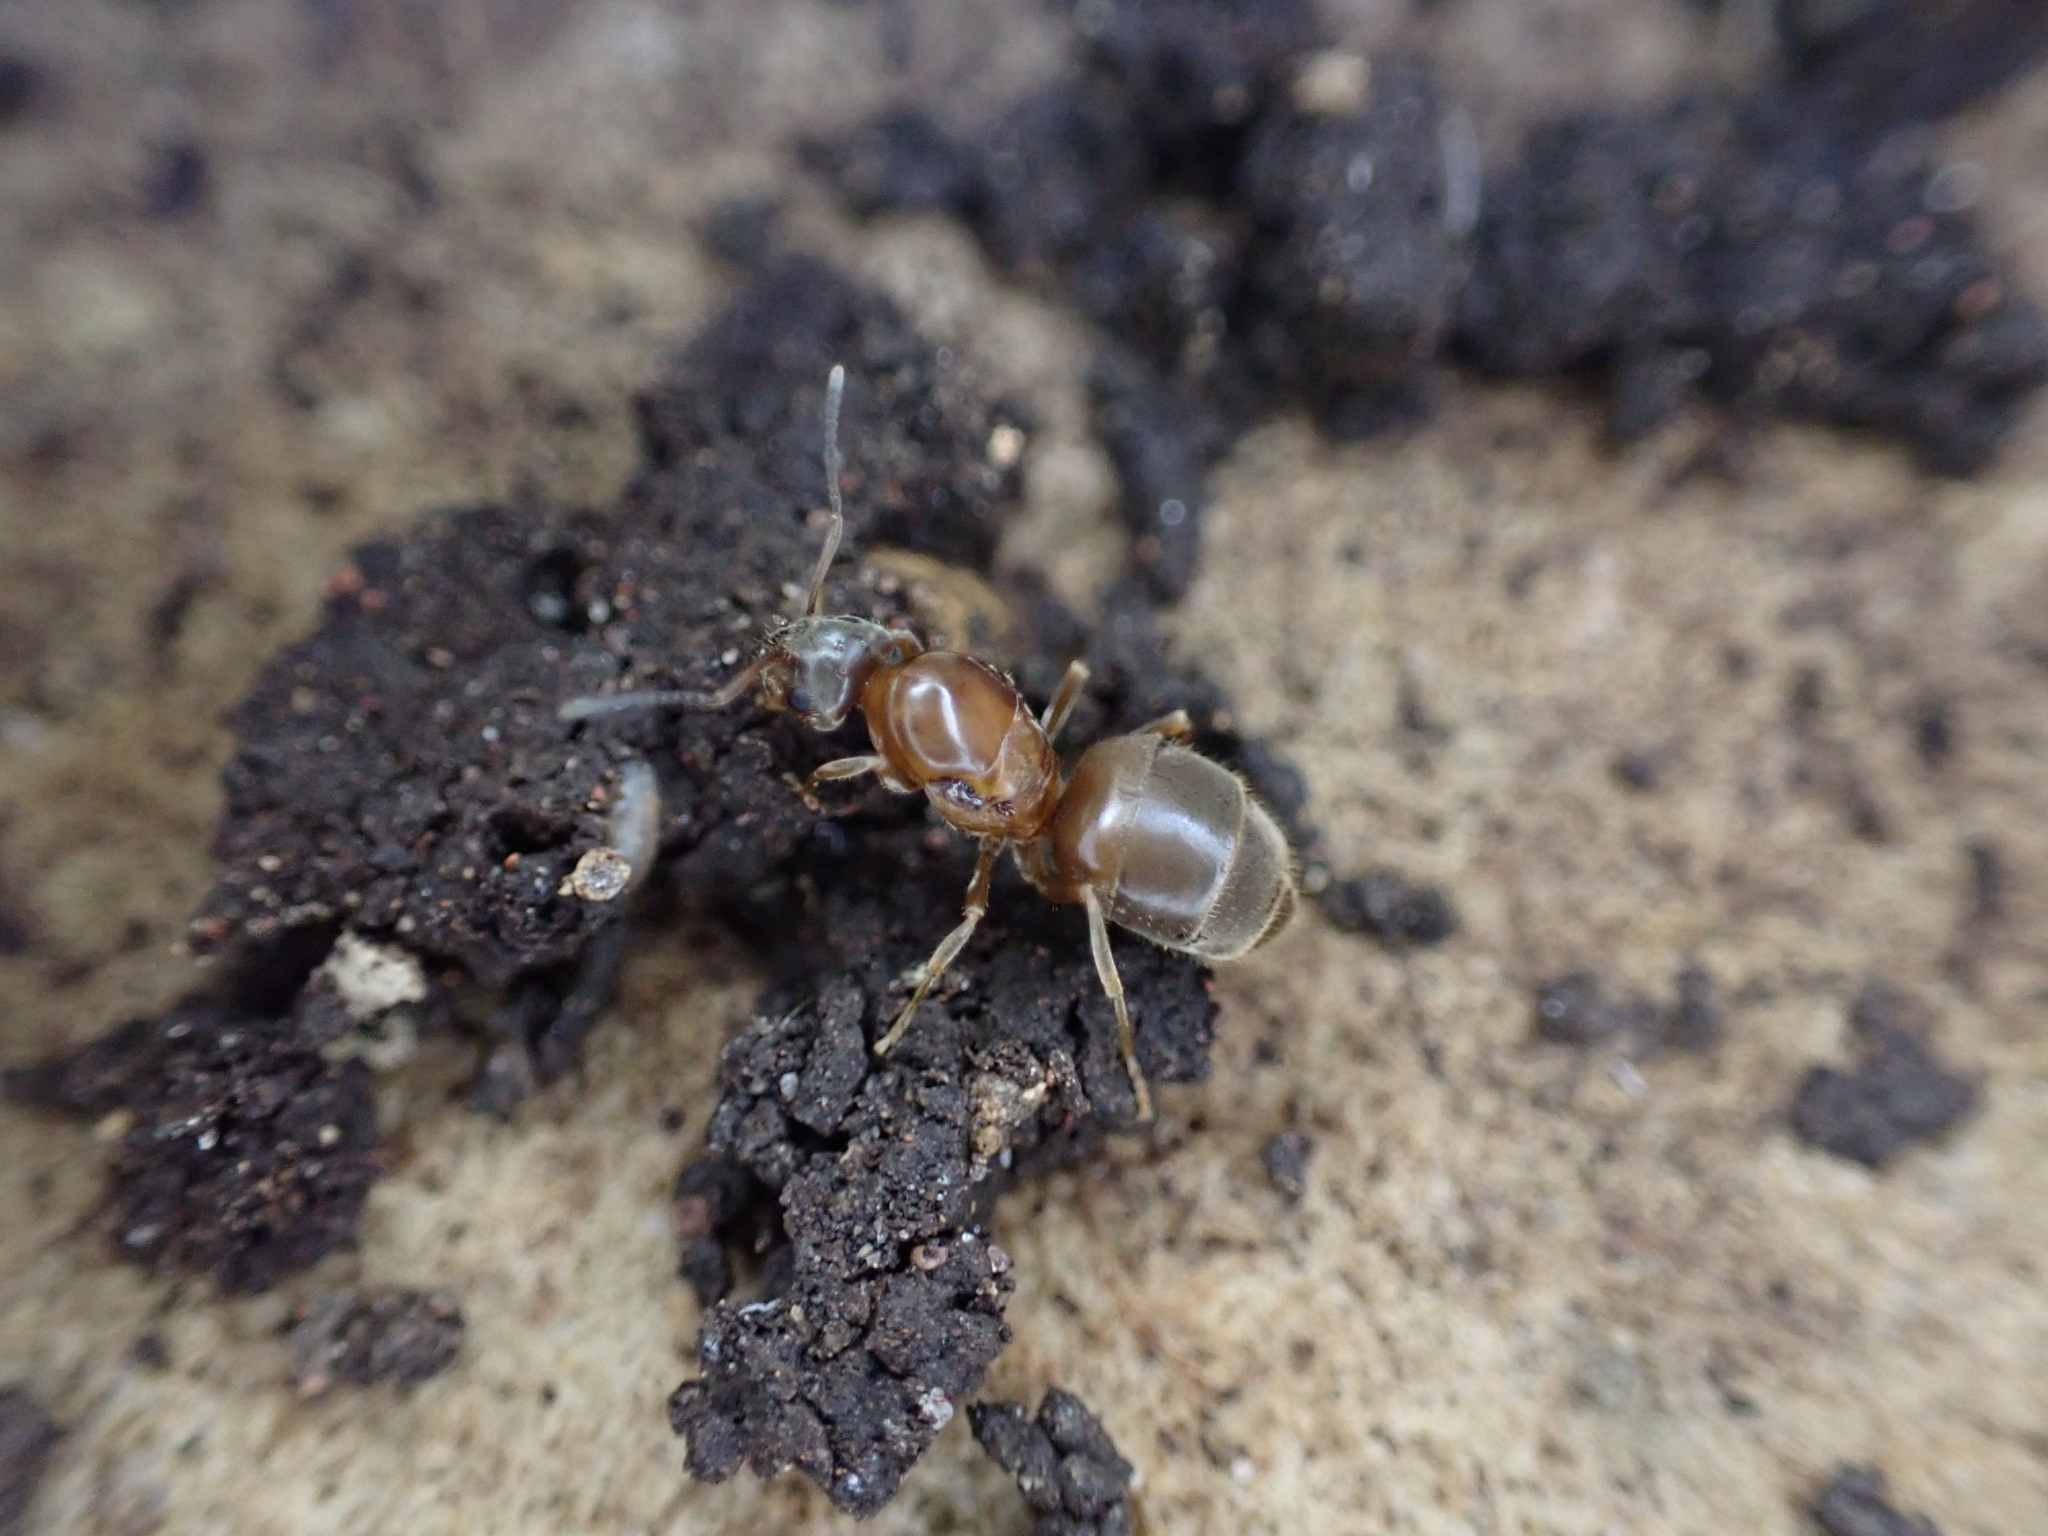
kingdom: Animalia
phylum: Arthropoda
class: Insecta
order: Hymenoptera
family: Formicidae
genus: Lasius
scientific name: Lasius emarginatus
